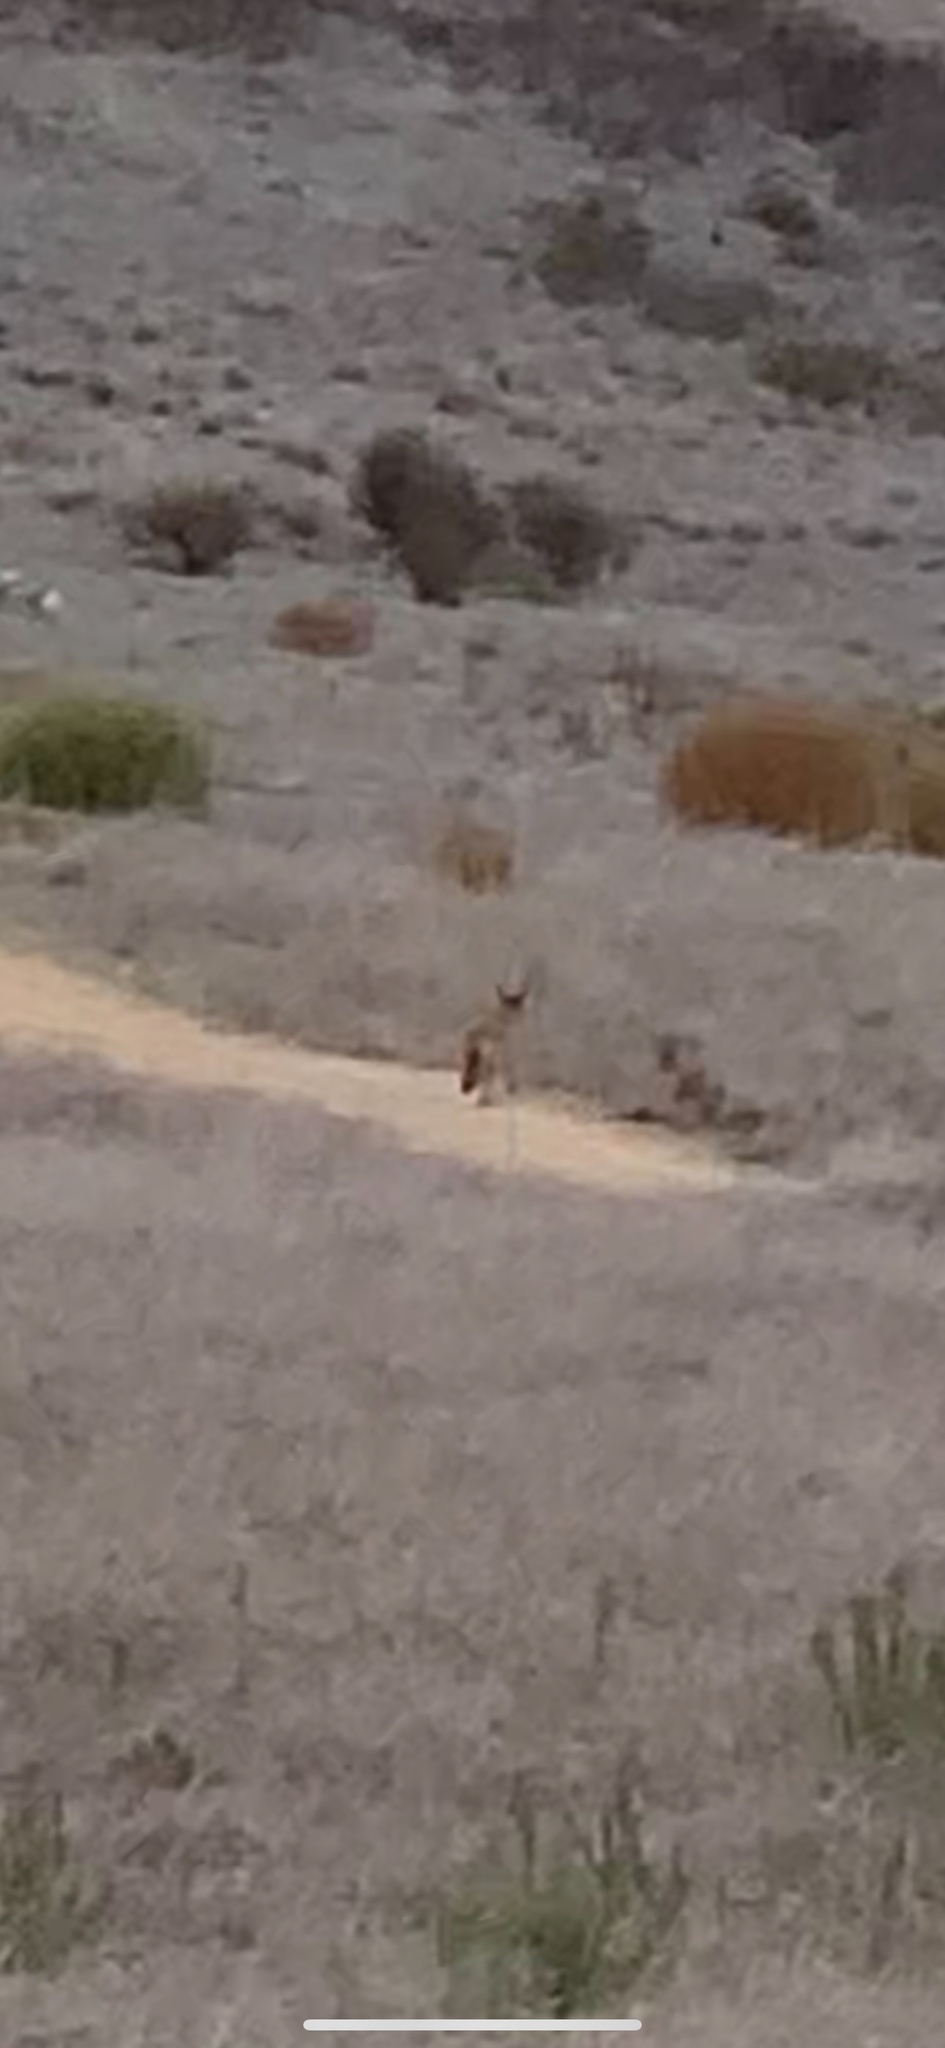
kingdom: Animalia
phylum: Chordata
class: Mammalia
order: Carnivora
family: Canidae
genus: Canis
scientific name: Canis latrans
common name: Coyote
